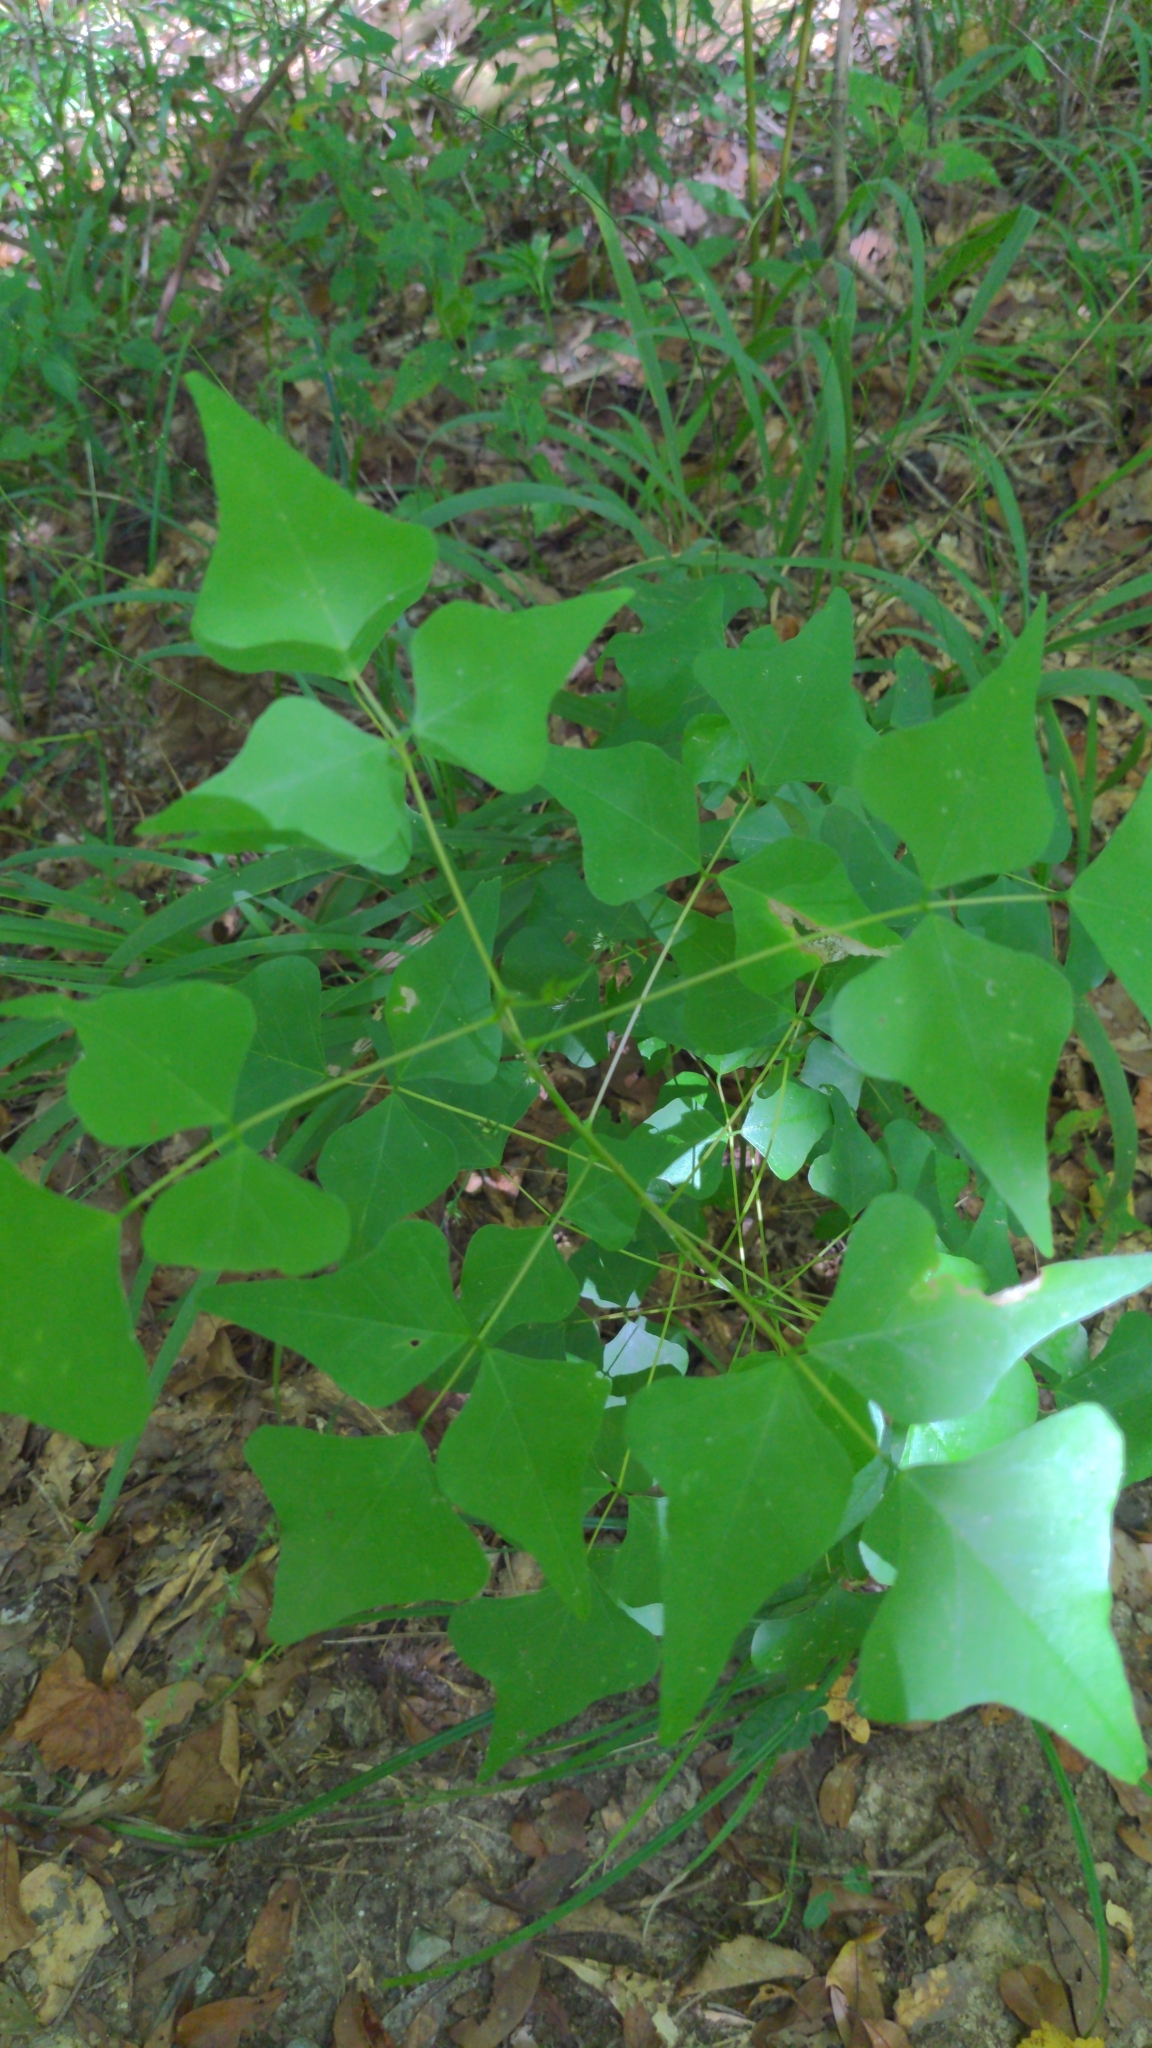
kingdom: Plantae
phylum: Tracheophyta
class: Magnoliopsida
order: Fabales
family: Fabaceae
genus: Erythrina
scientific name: Erythrina herbacea
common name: Coral-bean
